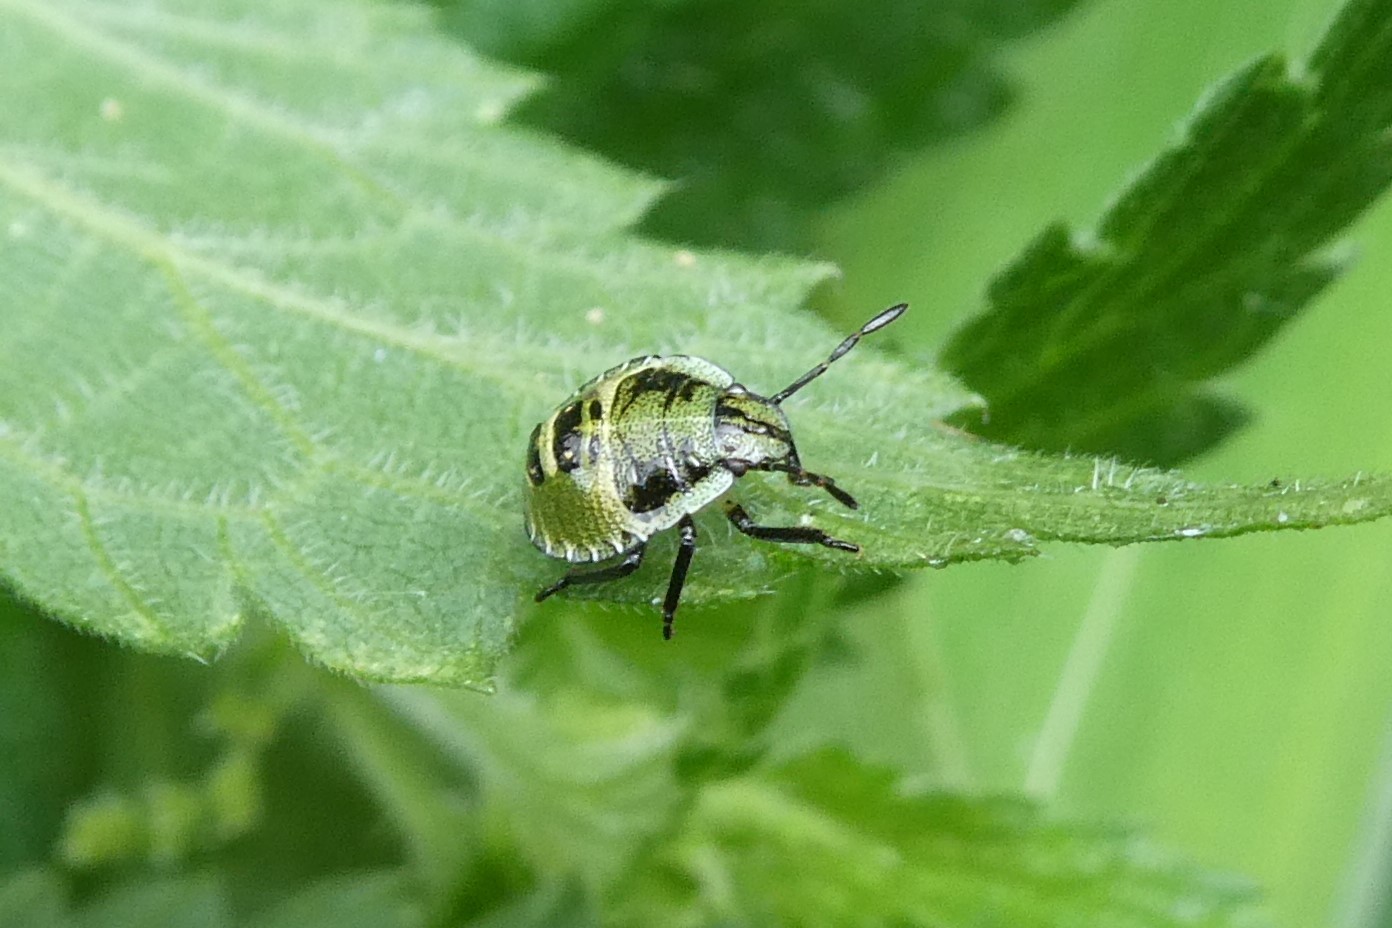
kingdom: Animalia
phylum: Arthropoda
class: Insecta
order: Hemiptera
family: Pentatomidae
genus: Palomena
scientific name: Palomena prasina
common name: Green shieldbug
